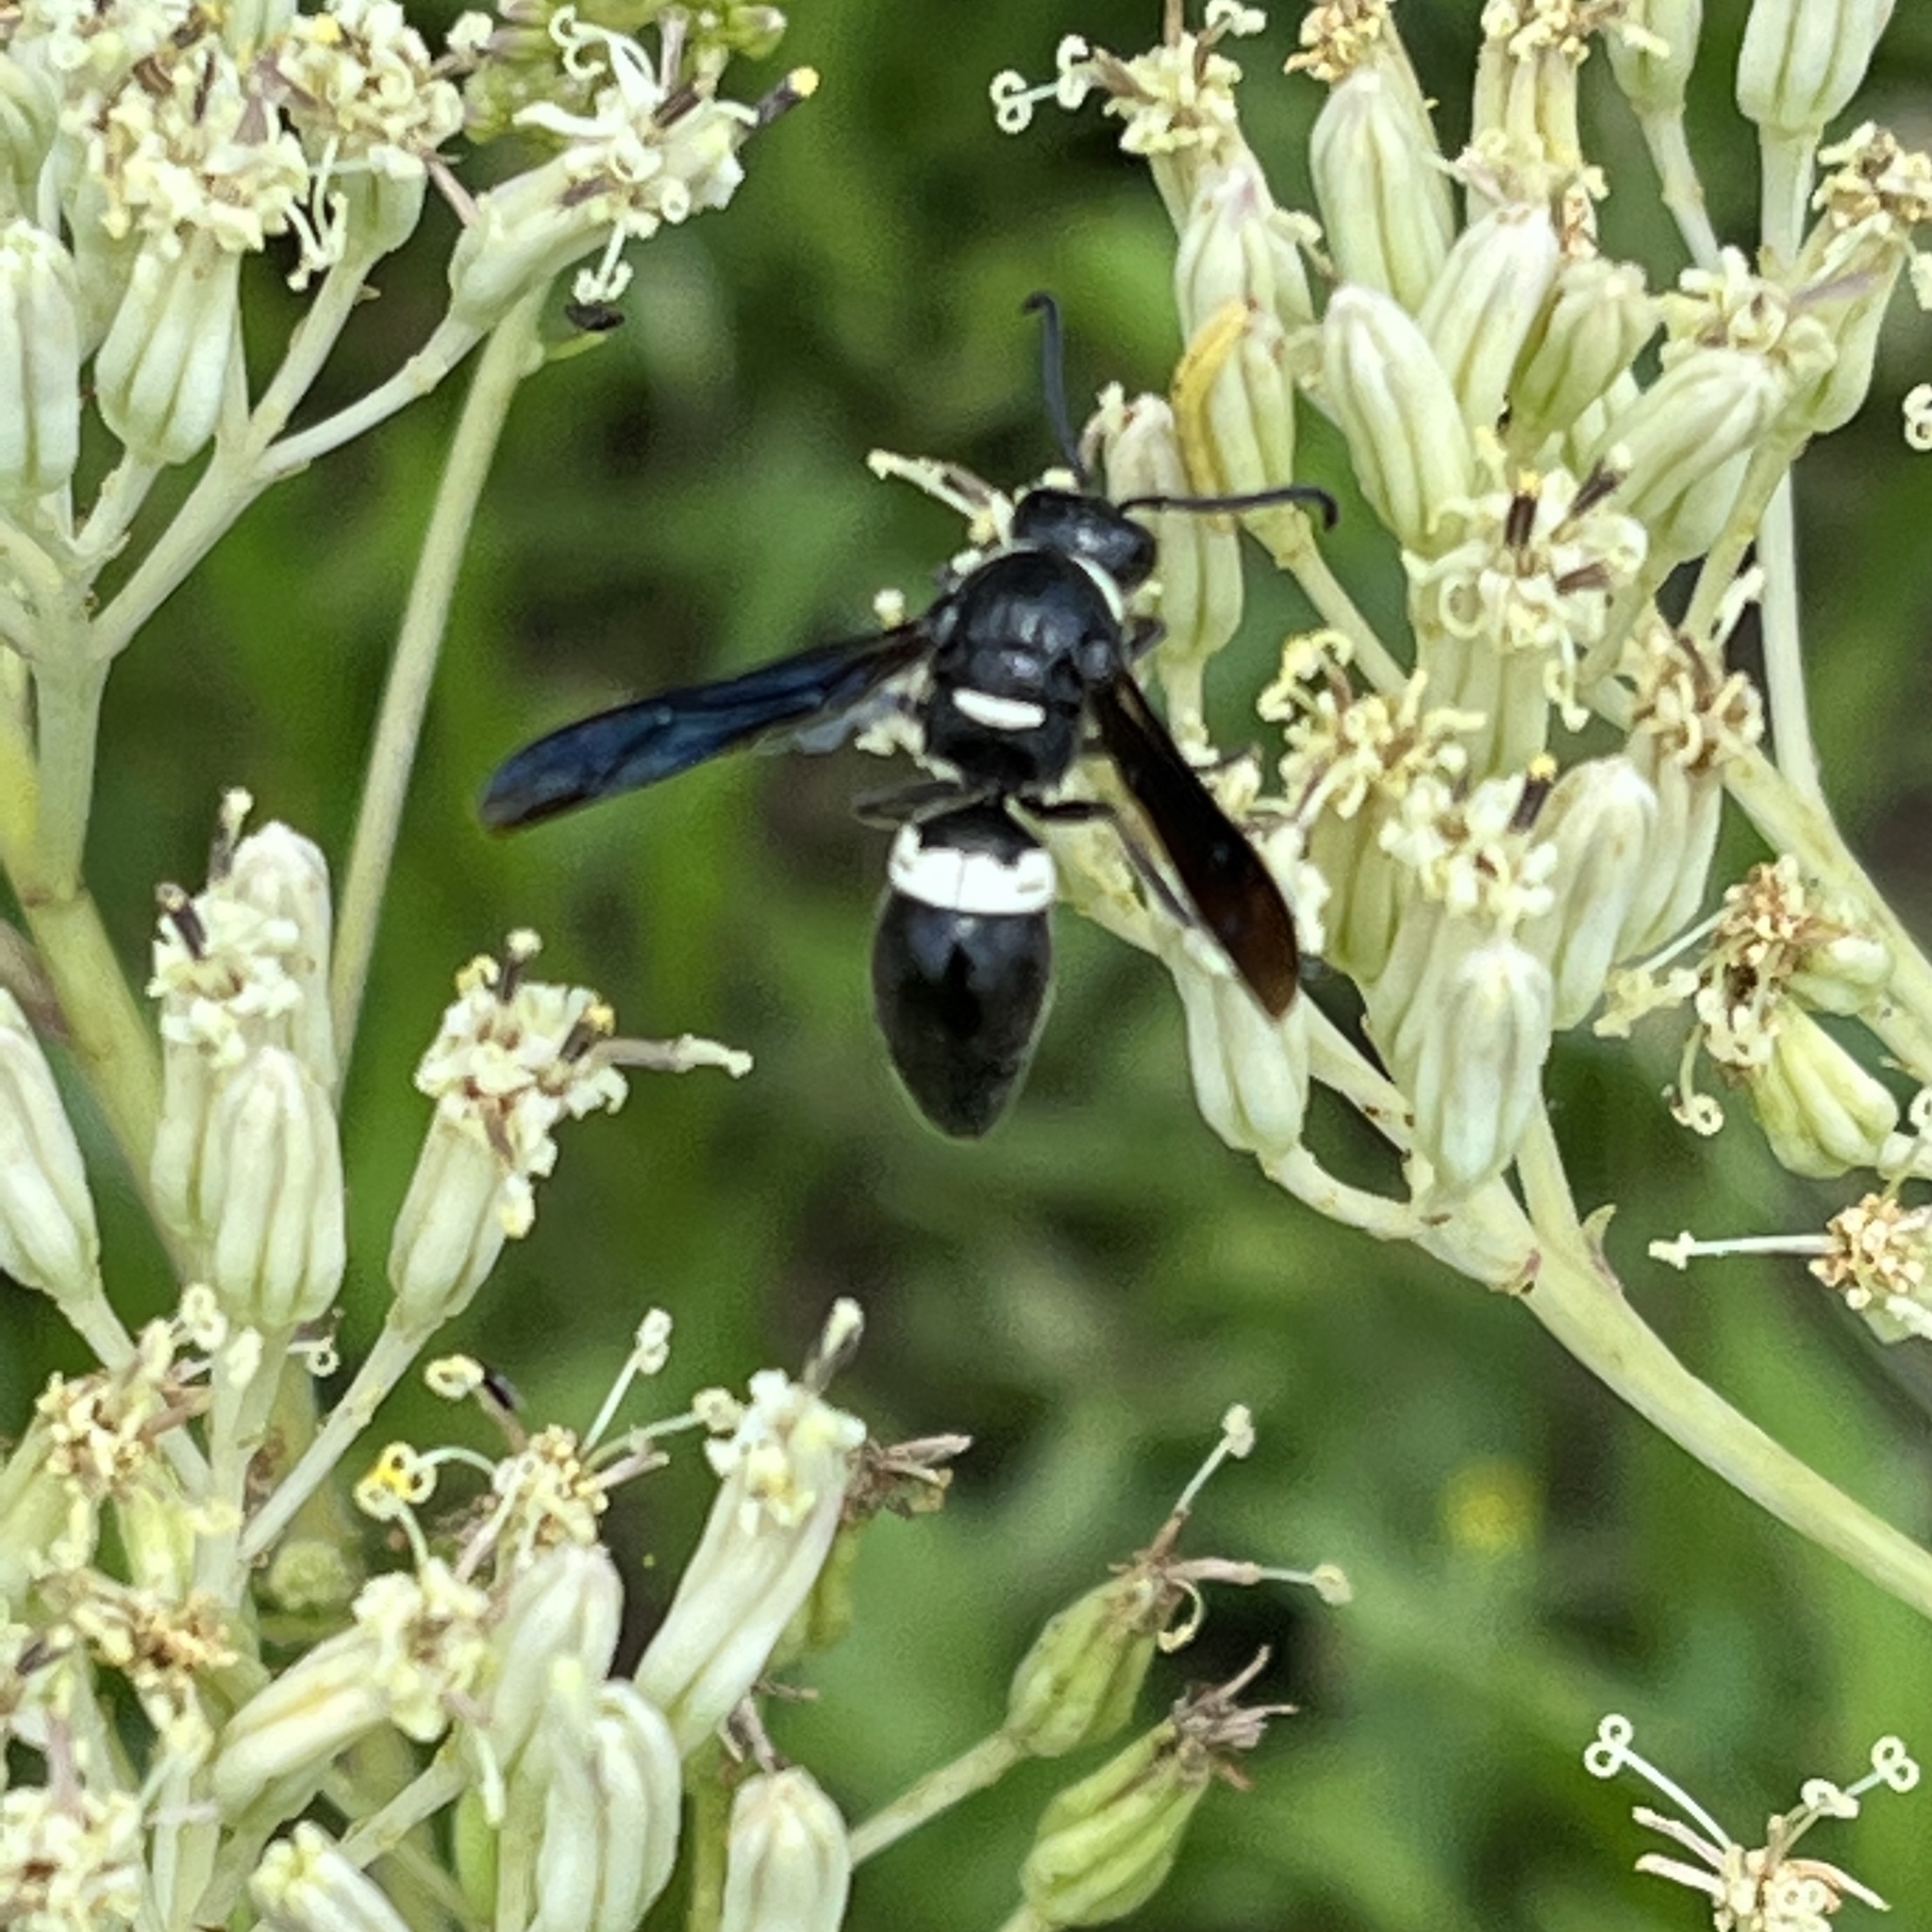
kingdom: Animalia
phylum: Arthropoda
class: Insecta
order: Hymenoptera
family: Eumenidae
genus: Monobia
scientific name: Monobia quadridens
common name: Four-toothed mason wasp
